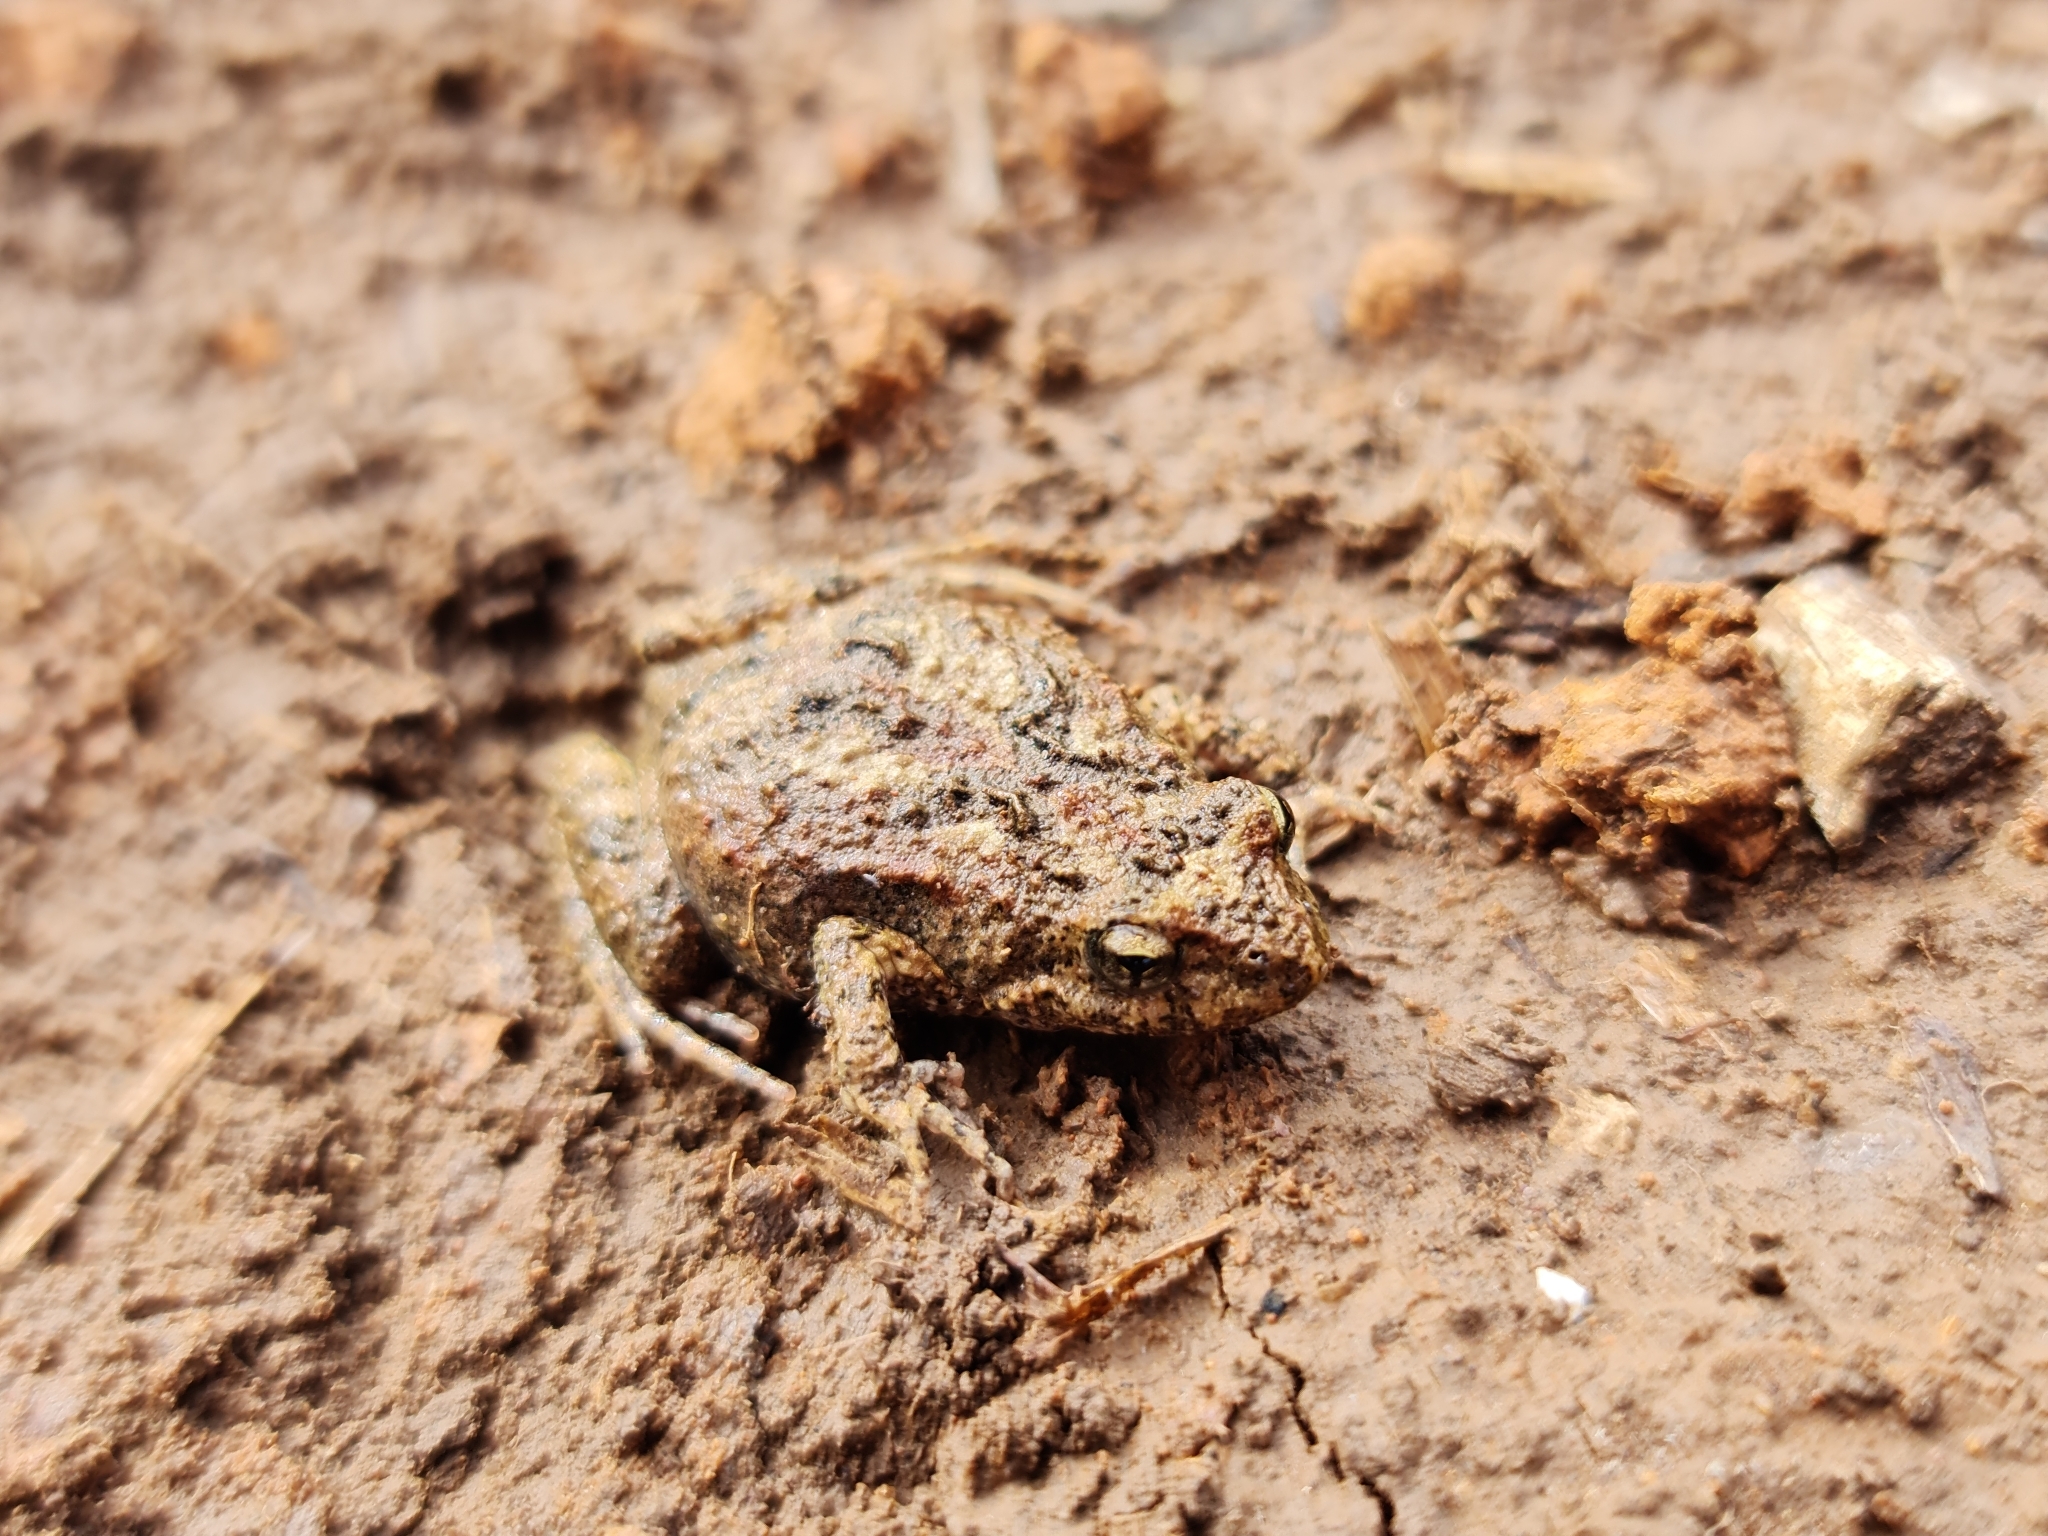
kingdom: Animalia
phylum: Chordata
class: Amphibia
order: Anura
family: Myobatrachidae
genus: Crinia
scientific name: Crinia signifera
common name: Brown froglet
